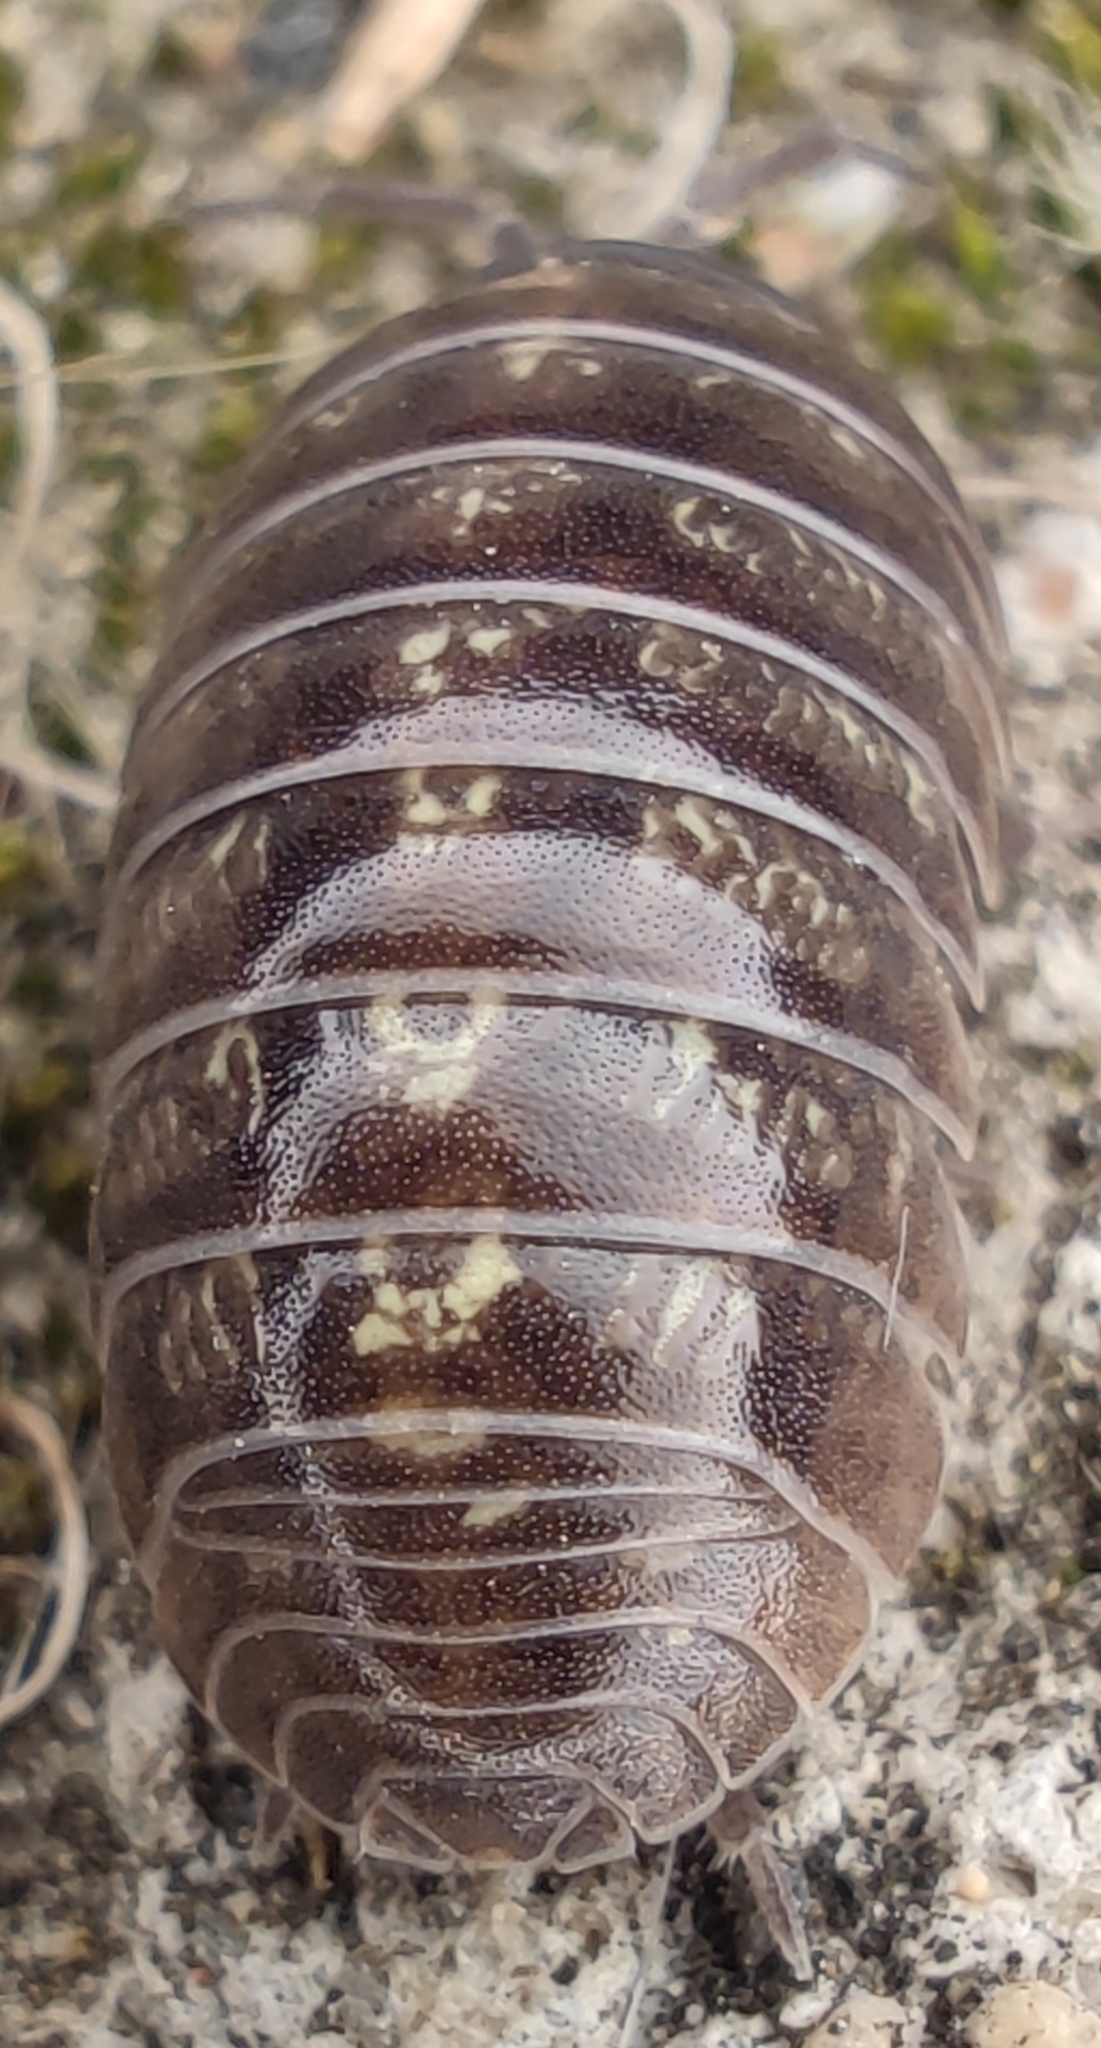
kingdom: Animalia
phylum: Arthropoda
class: Malacostraca
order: Isopoda
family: Armadillidiidae
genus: Armadillidium
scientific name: Armadillidium vulgare
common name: Common pill woodlouse
